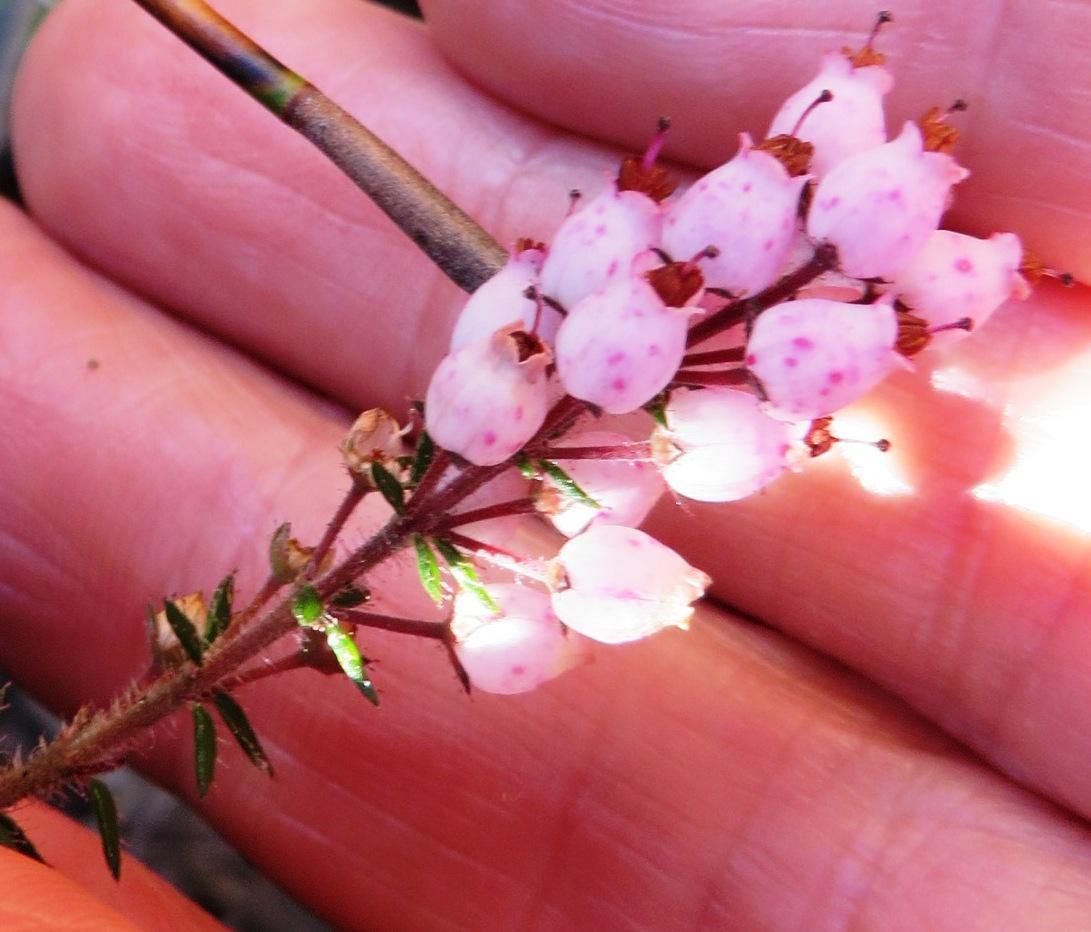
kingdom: Plantae
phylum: Tracheophyta
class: Magnoliopsida
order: Ericales
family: Ericaceae
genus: Erica
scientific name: Erica racemosa
